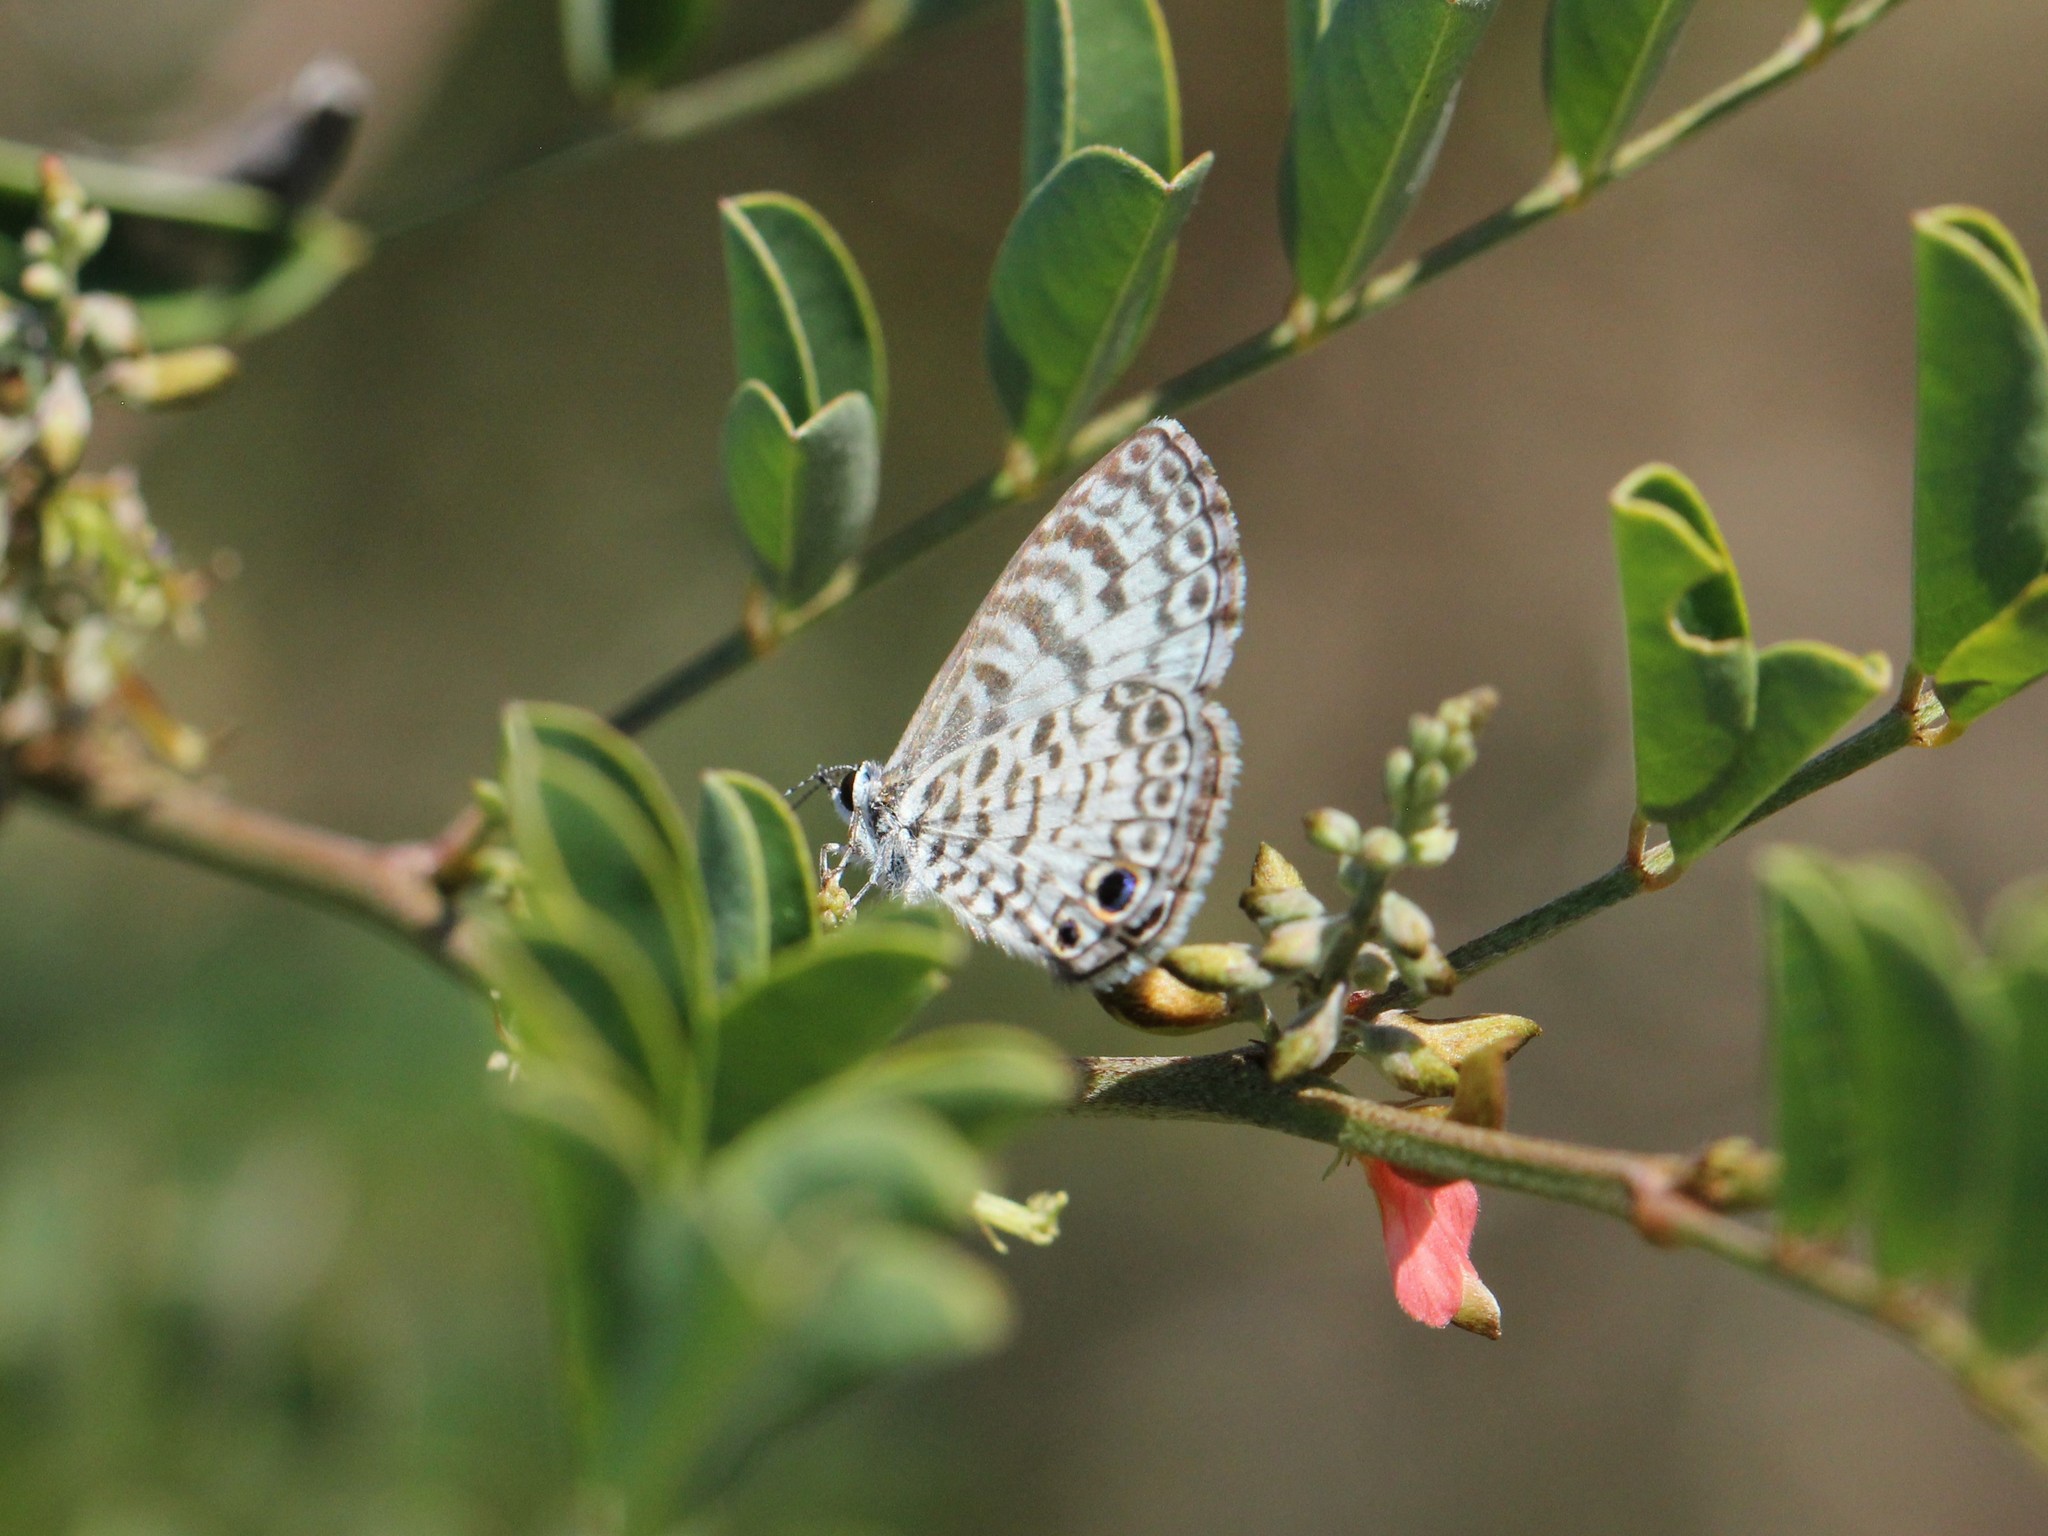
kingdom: Animalia
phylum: Arthropoda
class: Insecta
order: Lepidoptera
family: Lycaenidae
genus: Leptotes
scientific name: Leptotes cassius
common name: Cassius blue
